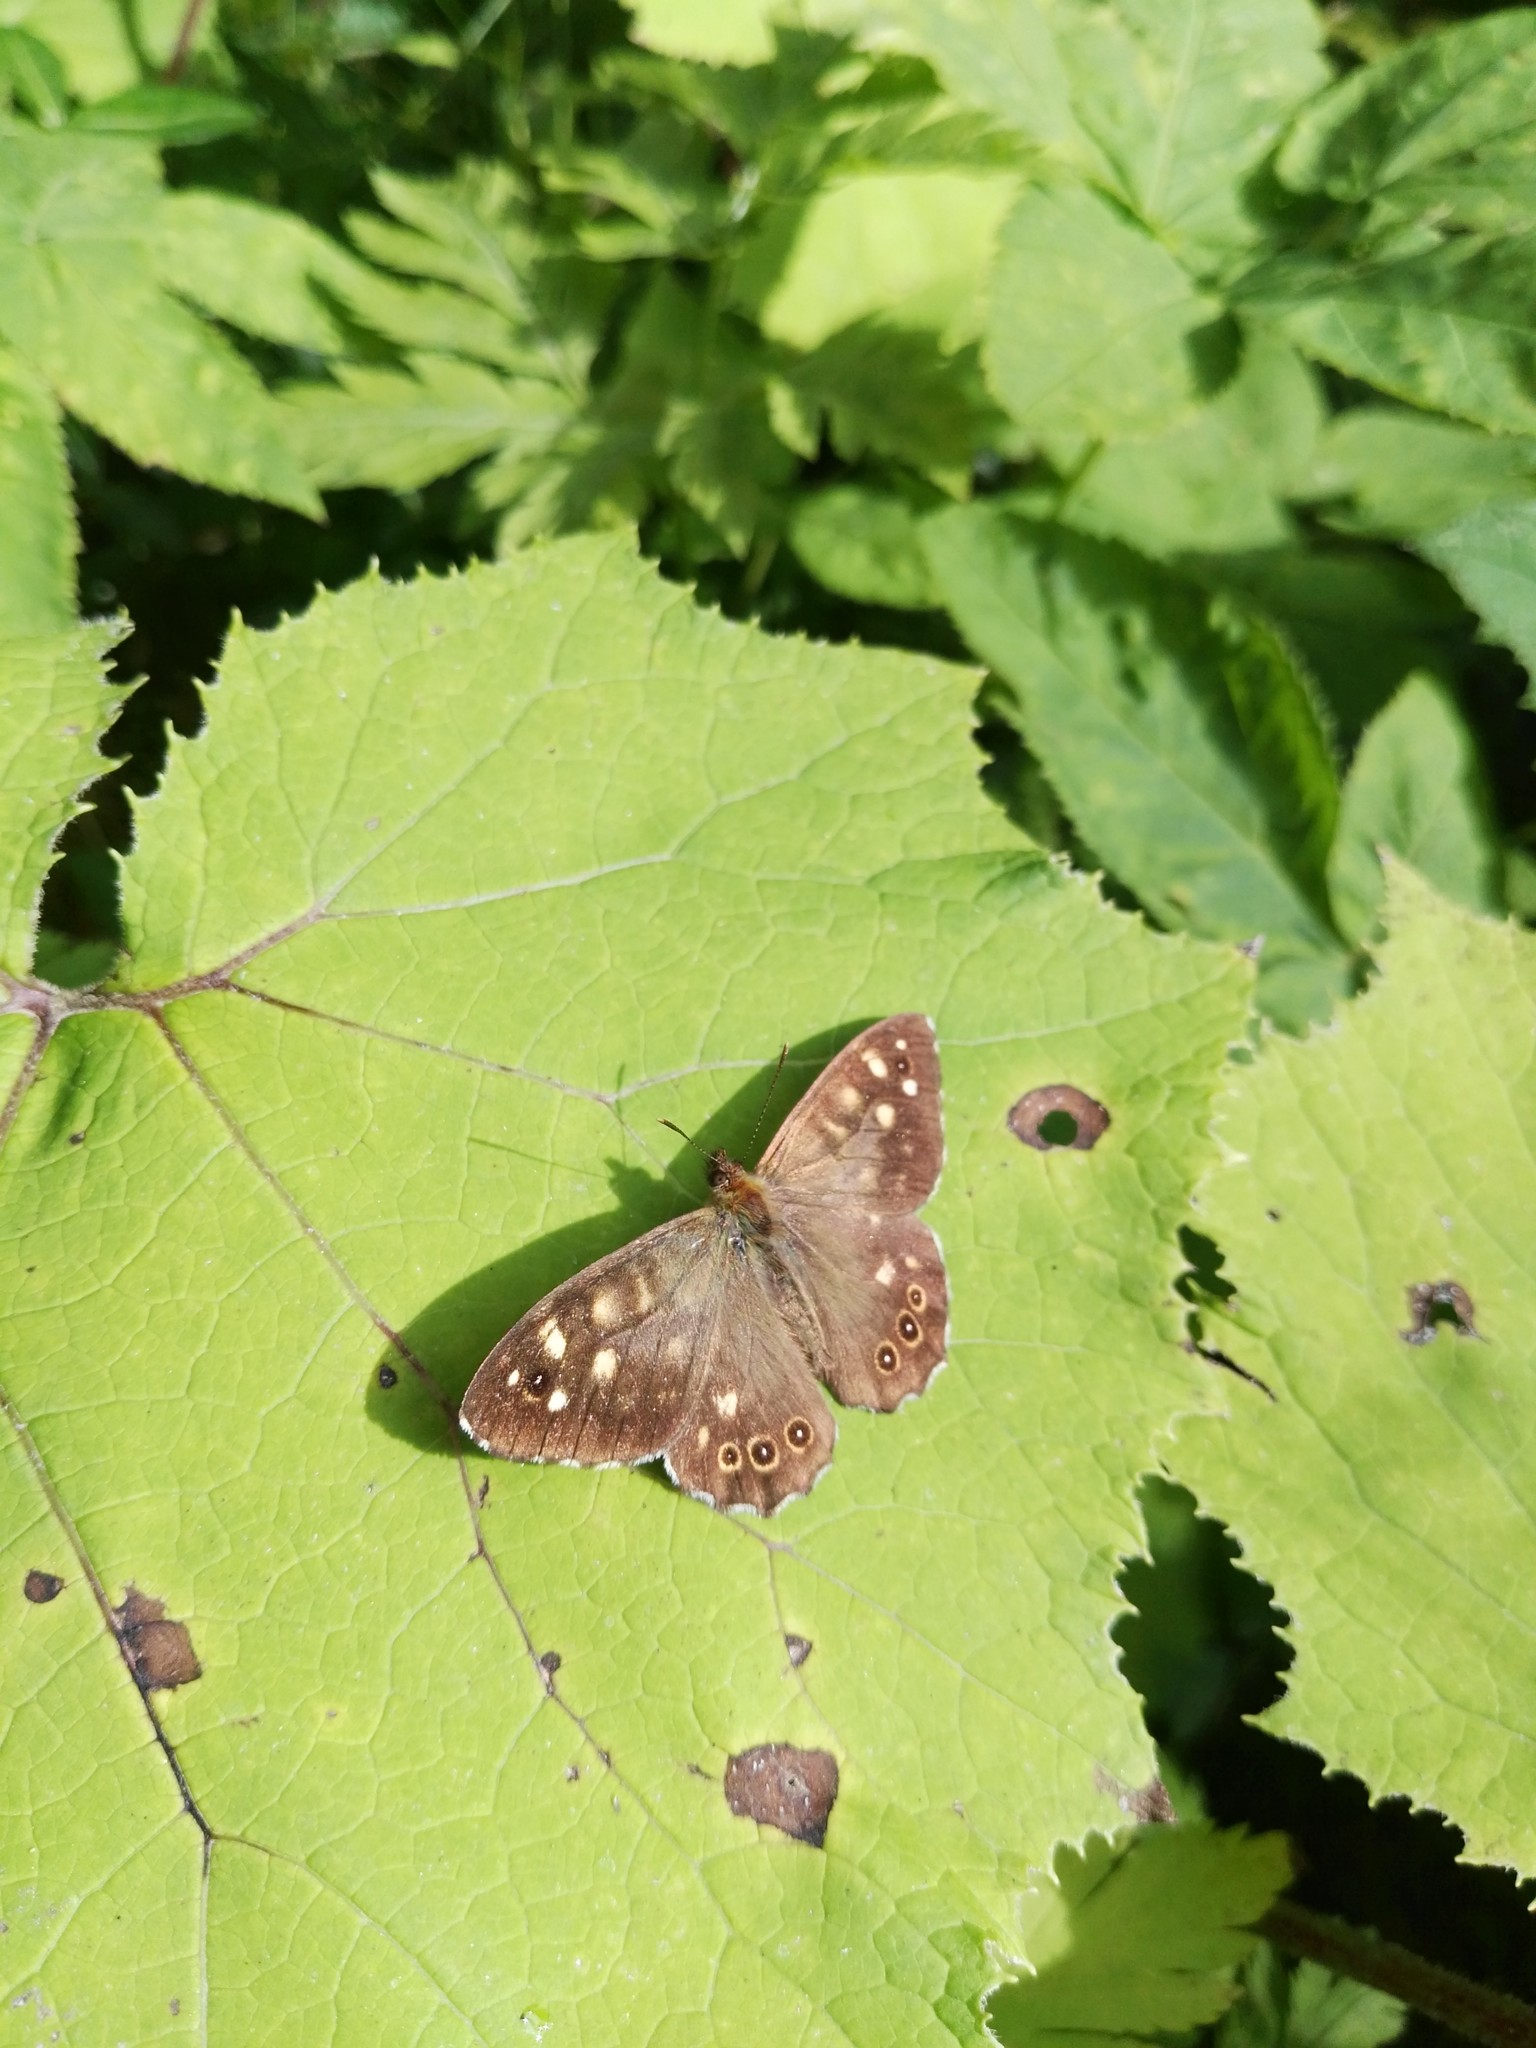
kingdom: Animalia
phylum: Arthropoda
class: Insecta
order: Lepidoptera
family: Nymphalidae
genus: Pararge
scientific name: Pararge aegeria
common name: Speckled wood
